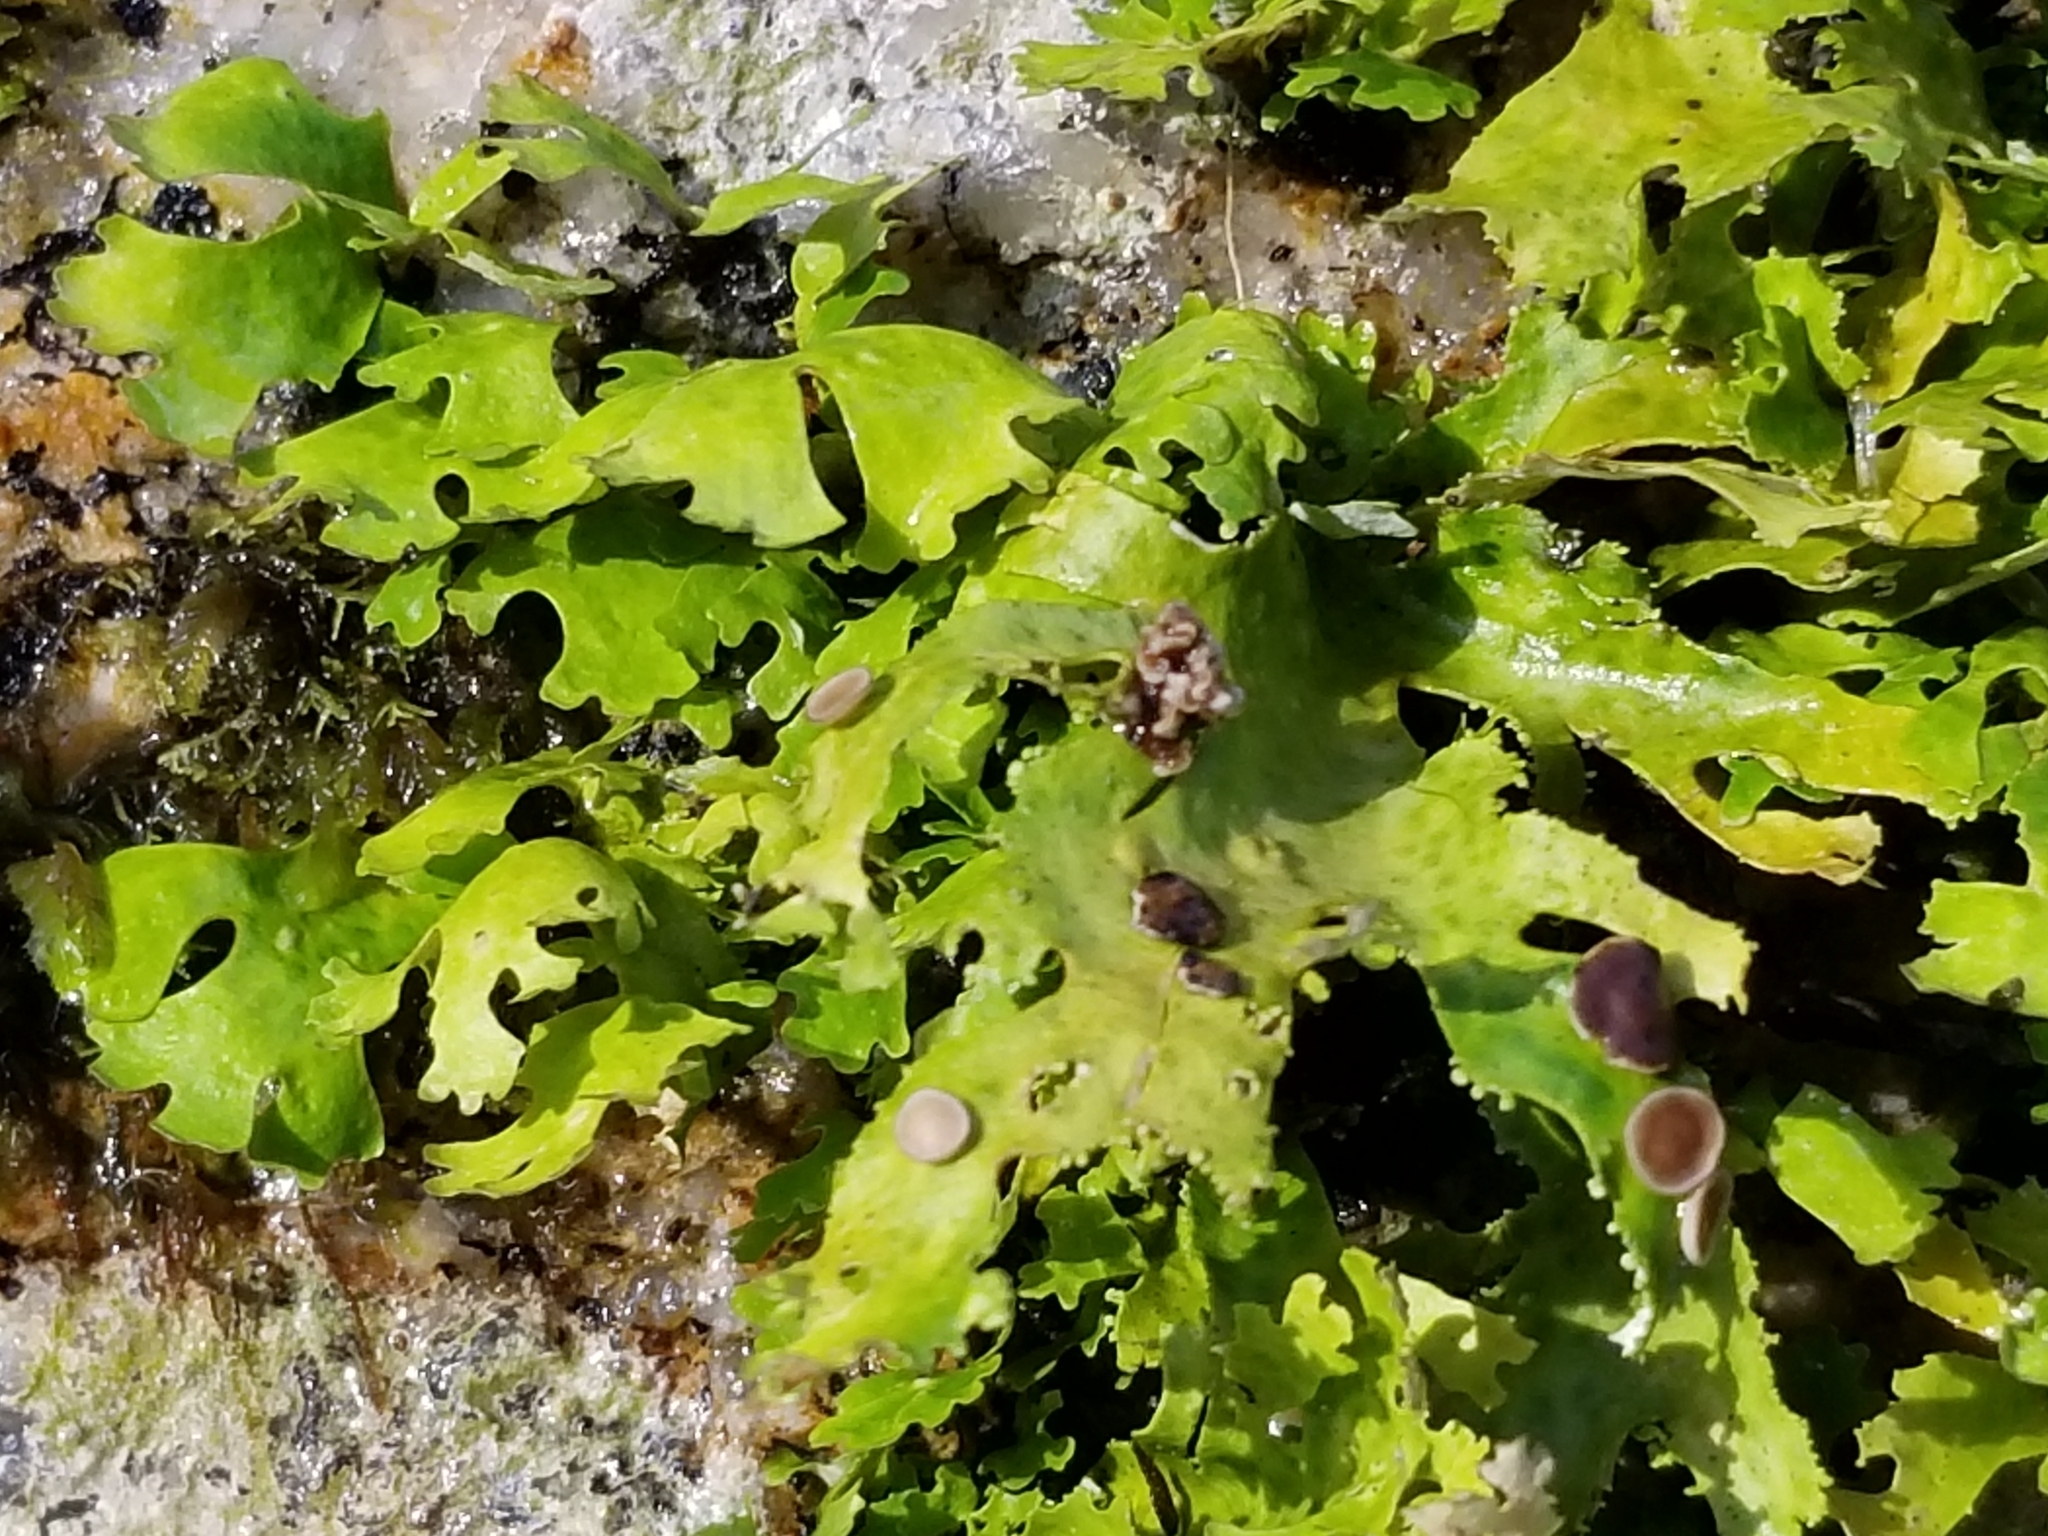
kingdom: Fungi
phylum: Ascomycota
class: Lecanoromycetes
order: Peltigerales
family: Lobariaceae
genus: Sticta
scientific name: Sticta
